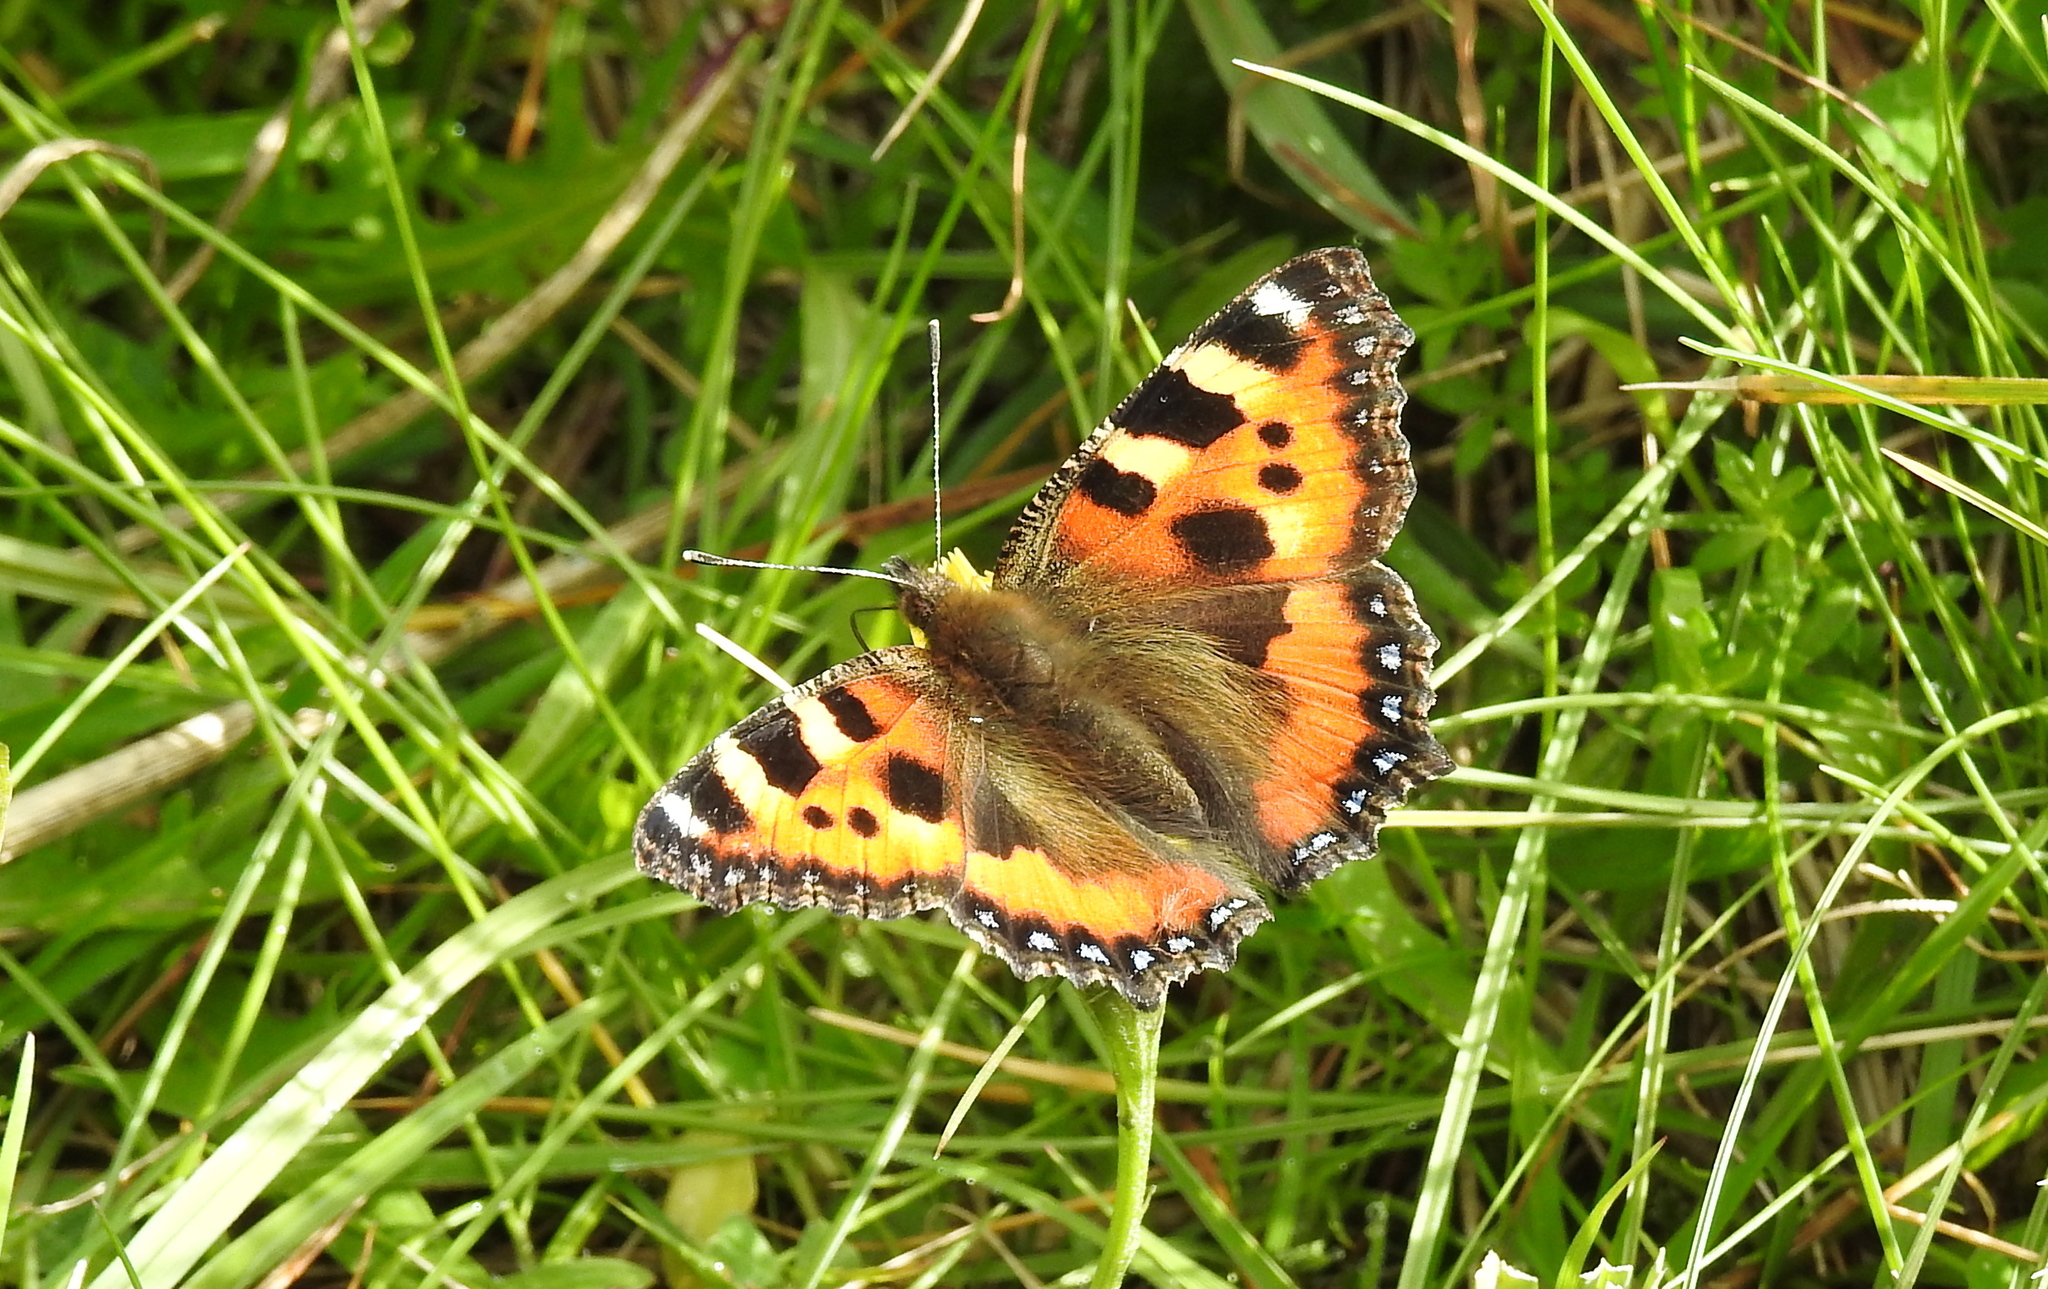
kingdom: Animalia
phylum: Arthropoda
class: Insecta
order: Lepidoptera
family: Nymphalidae
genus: Aglais
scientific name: Aglais urticae
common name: Small tortoiseshell
